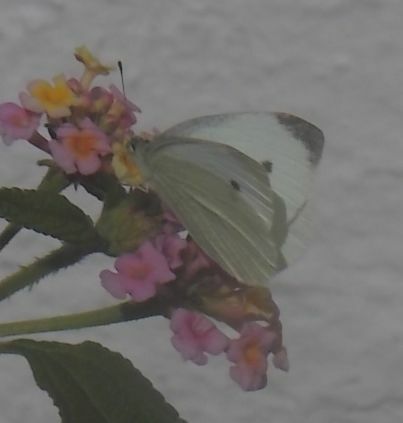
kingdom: Animalia
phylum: Arthropoda
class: Insecta
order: Lepidoptera
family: Pieridae
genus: Pieris
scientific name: Pieris rapae
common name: Small white
